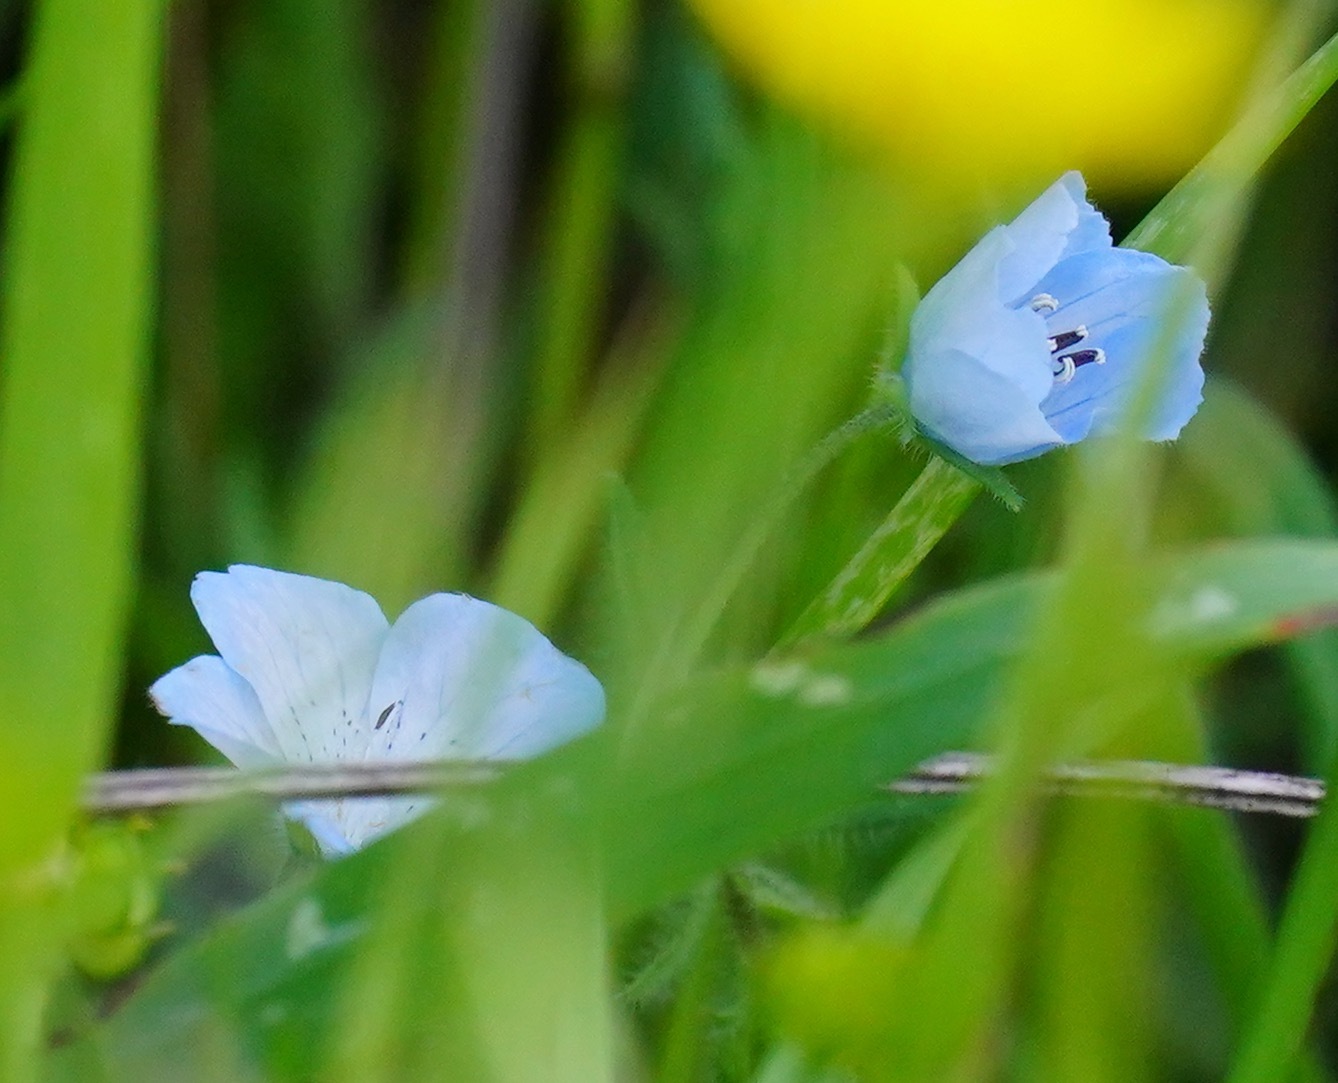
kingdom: Plantae
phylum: Tracheophyta
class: Magnoliopsida
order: Boraginales
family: Hydrophyllaceae
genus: Nemophila
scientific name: Nemophila menziesii
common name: Baby's-blue-eyes
